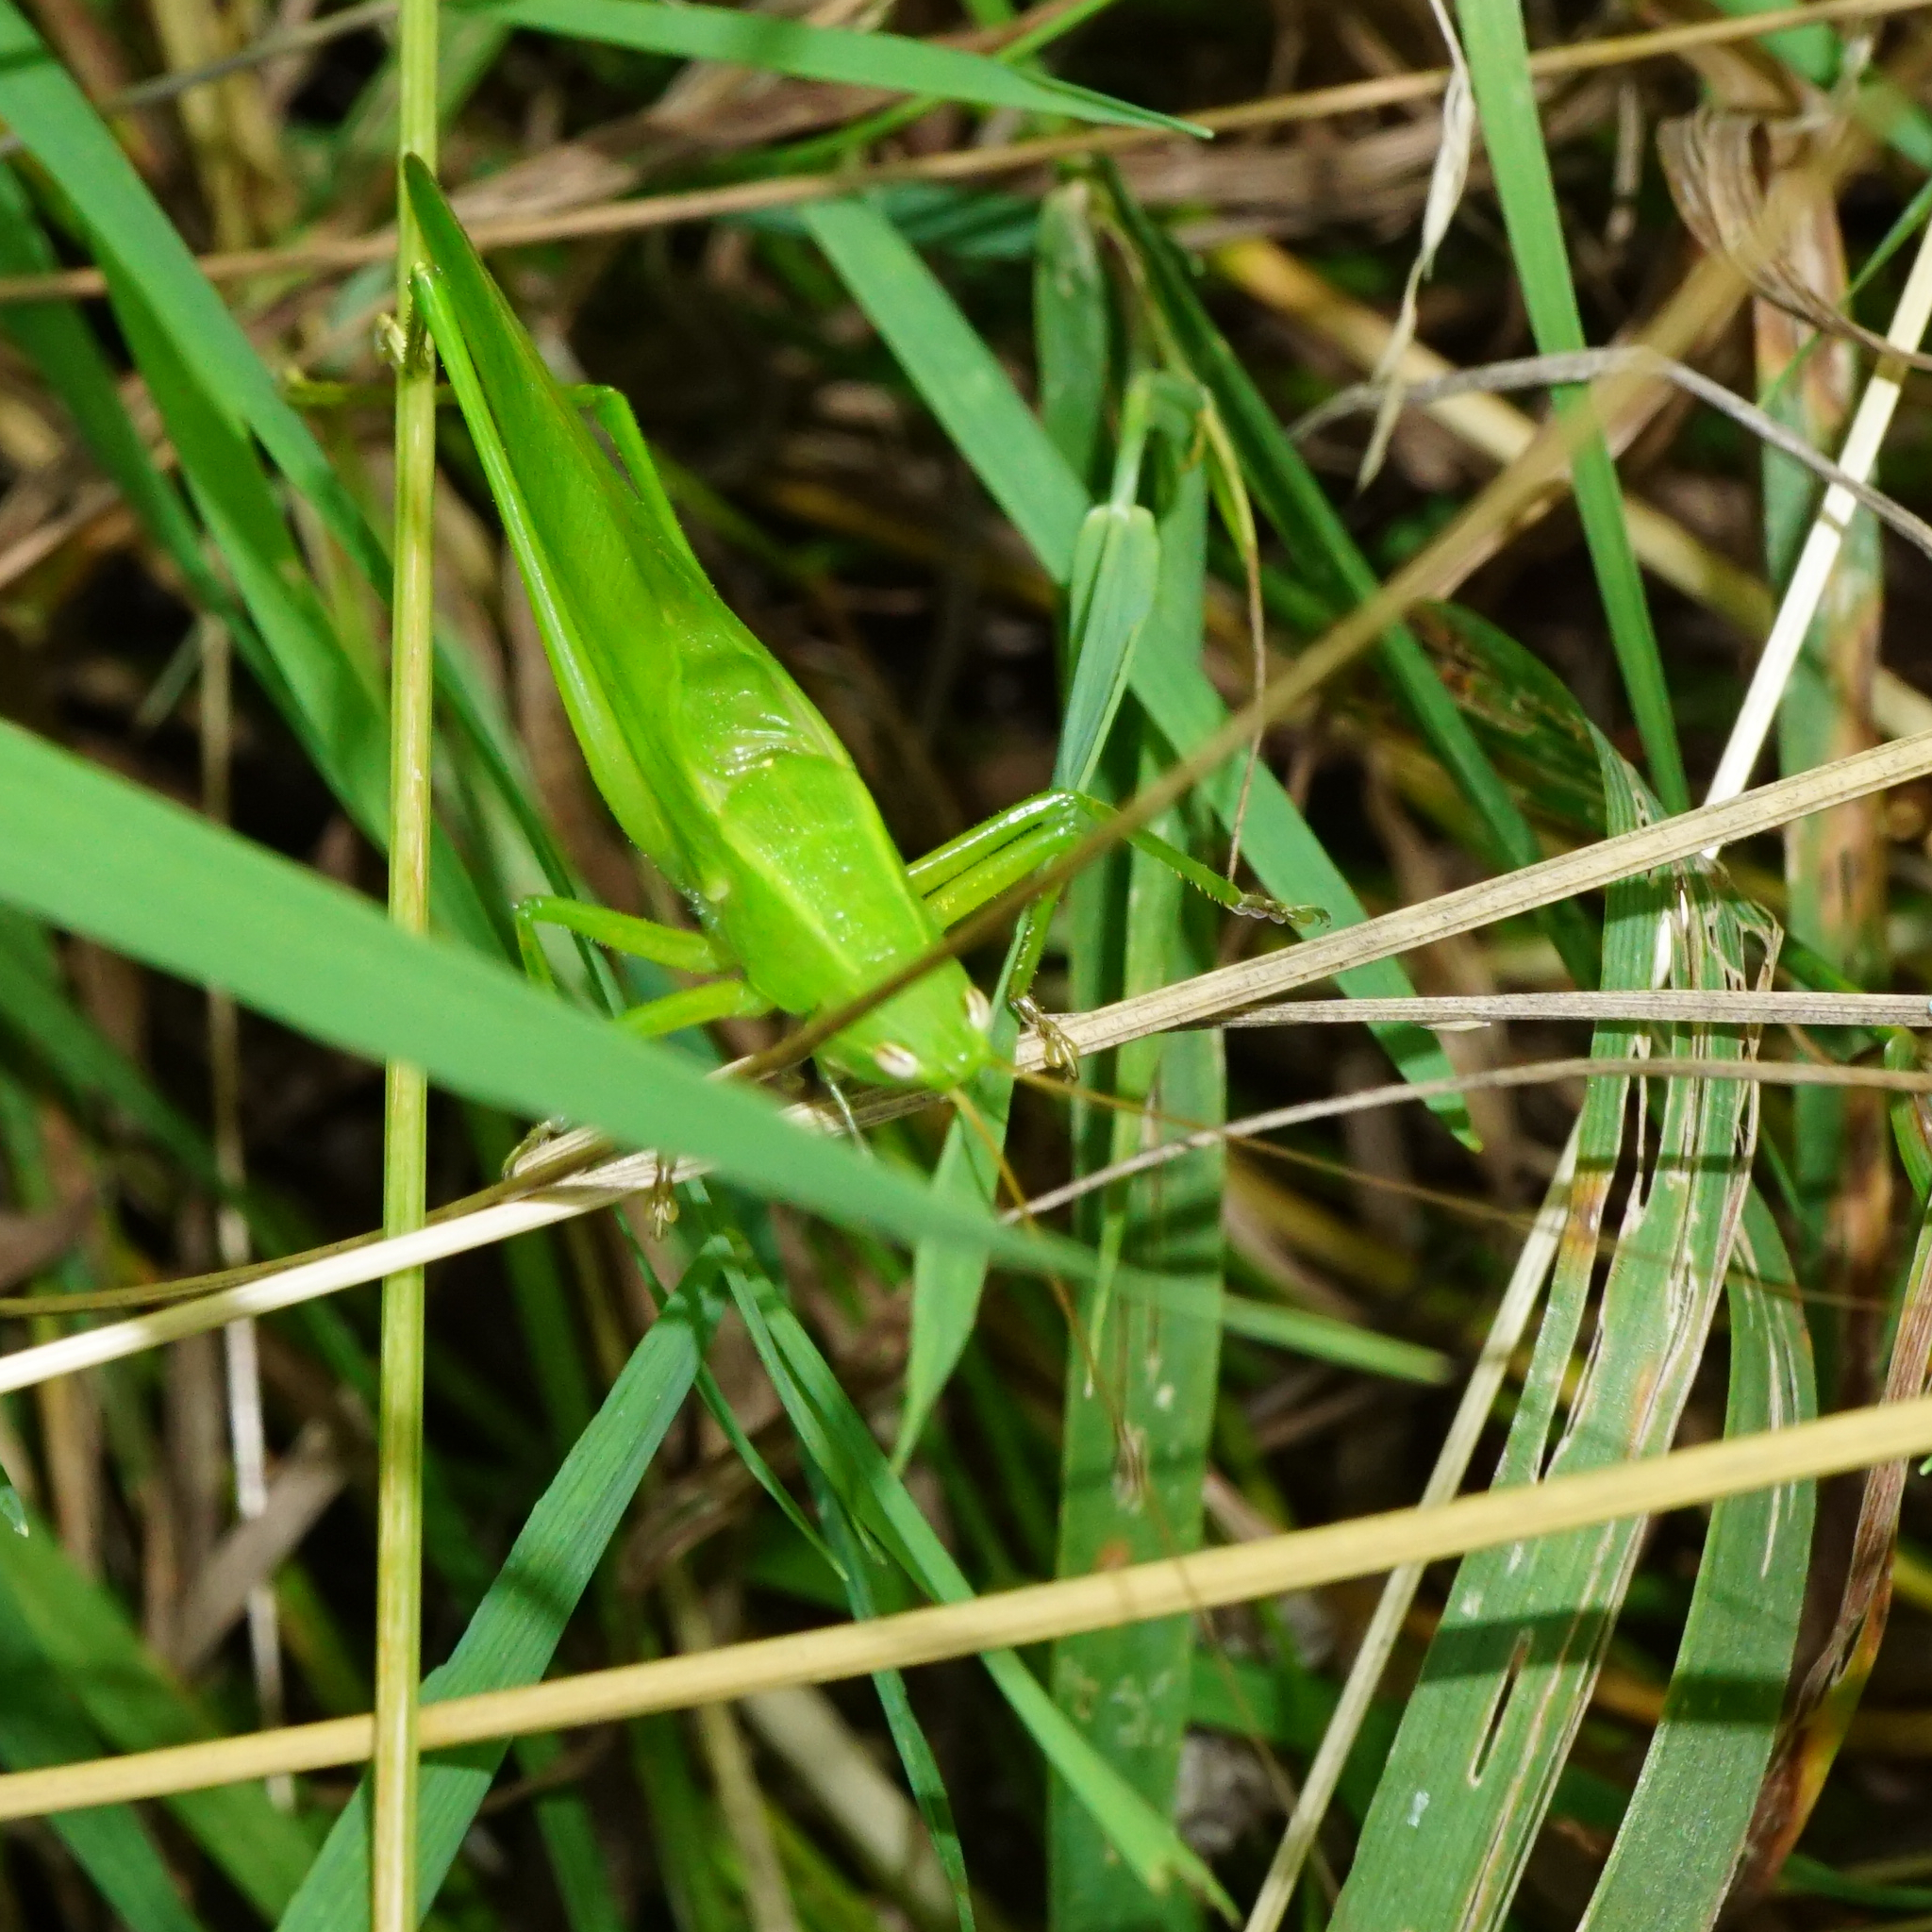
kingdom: Animalia
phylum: Arthropoda
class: Insecta
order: Orthoptera
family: Tettigoniidae
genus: Ruspolia
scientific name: Ruspolia nitidula
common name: Large conehead
